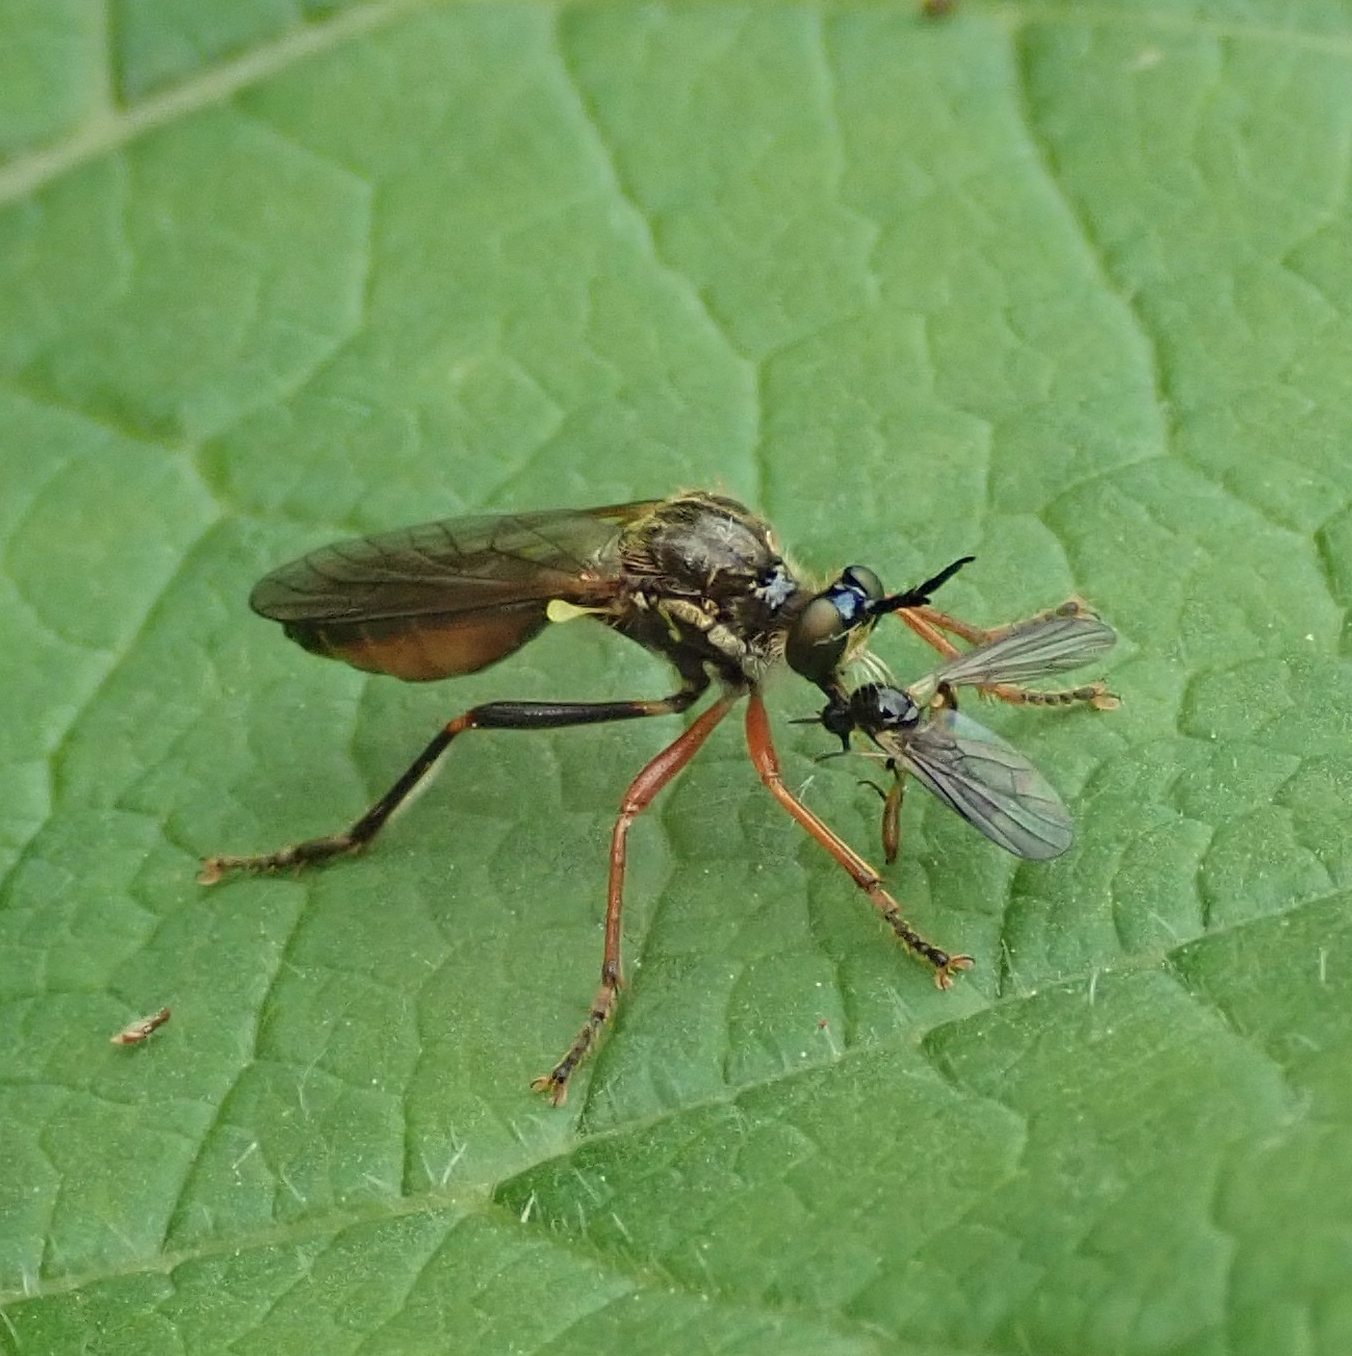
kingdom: Animalia
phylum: Arthropoda
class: Insecta
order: Diptera
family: Asilidae
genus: Dioctria
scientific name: Dioctria rufipes
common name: Common red-legged robberfly
